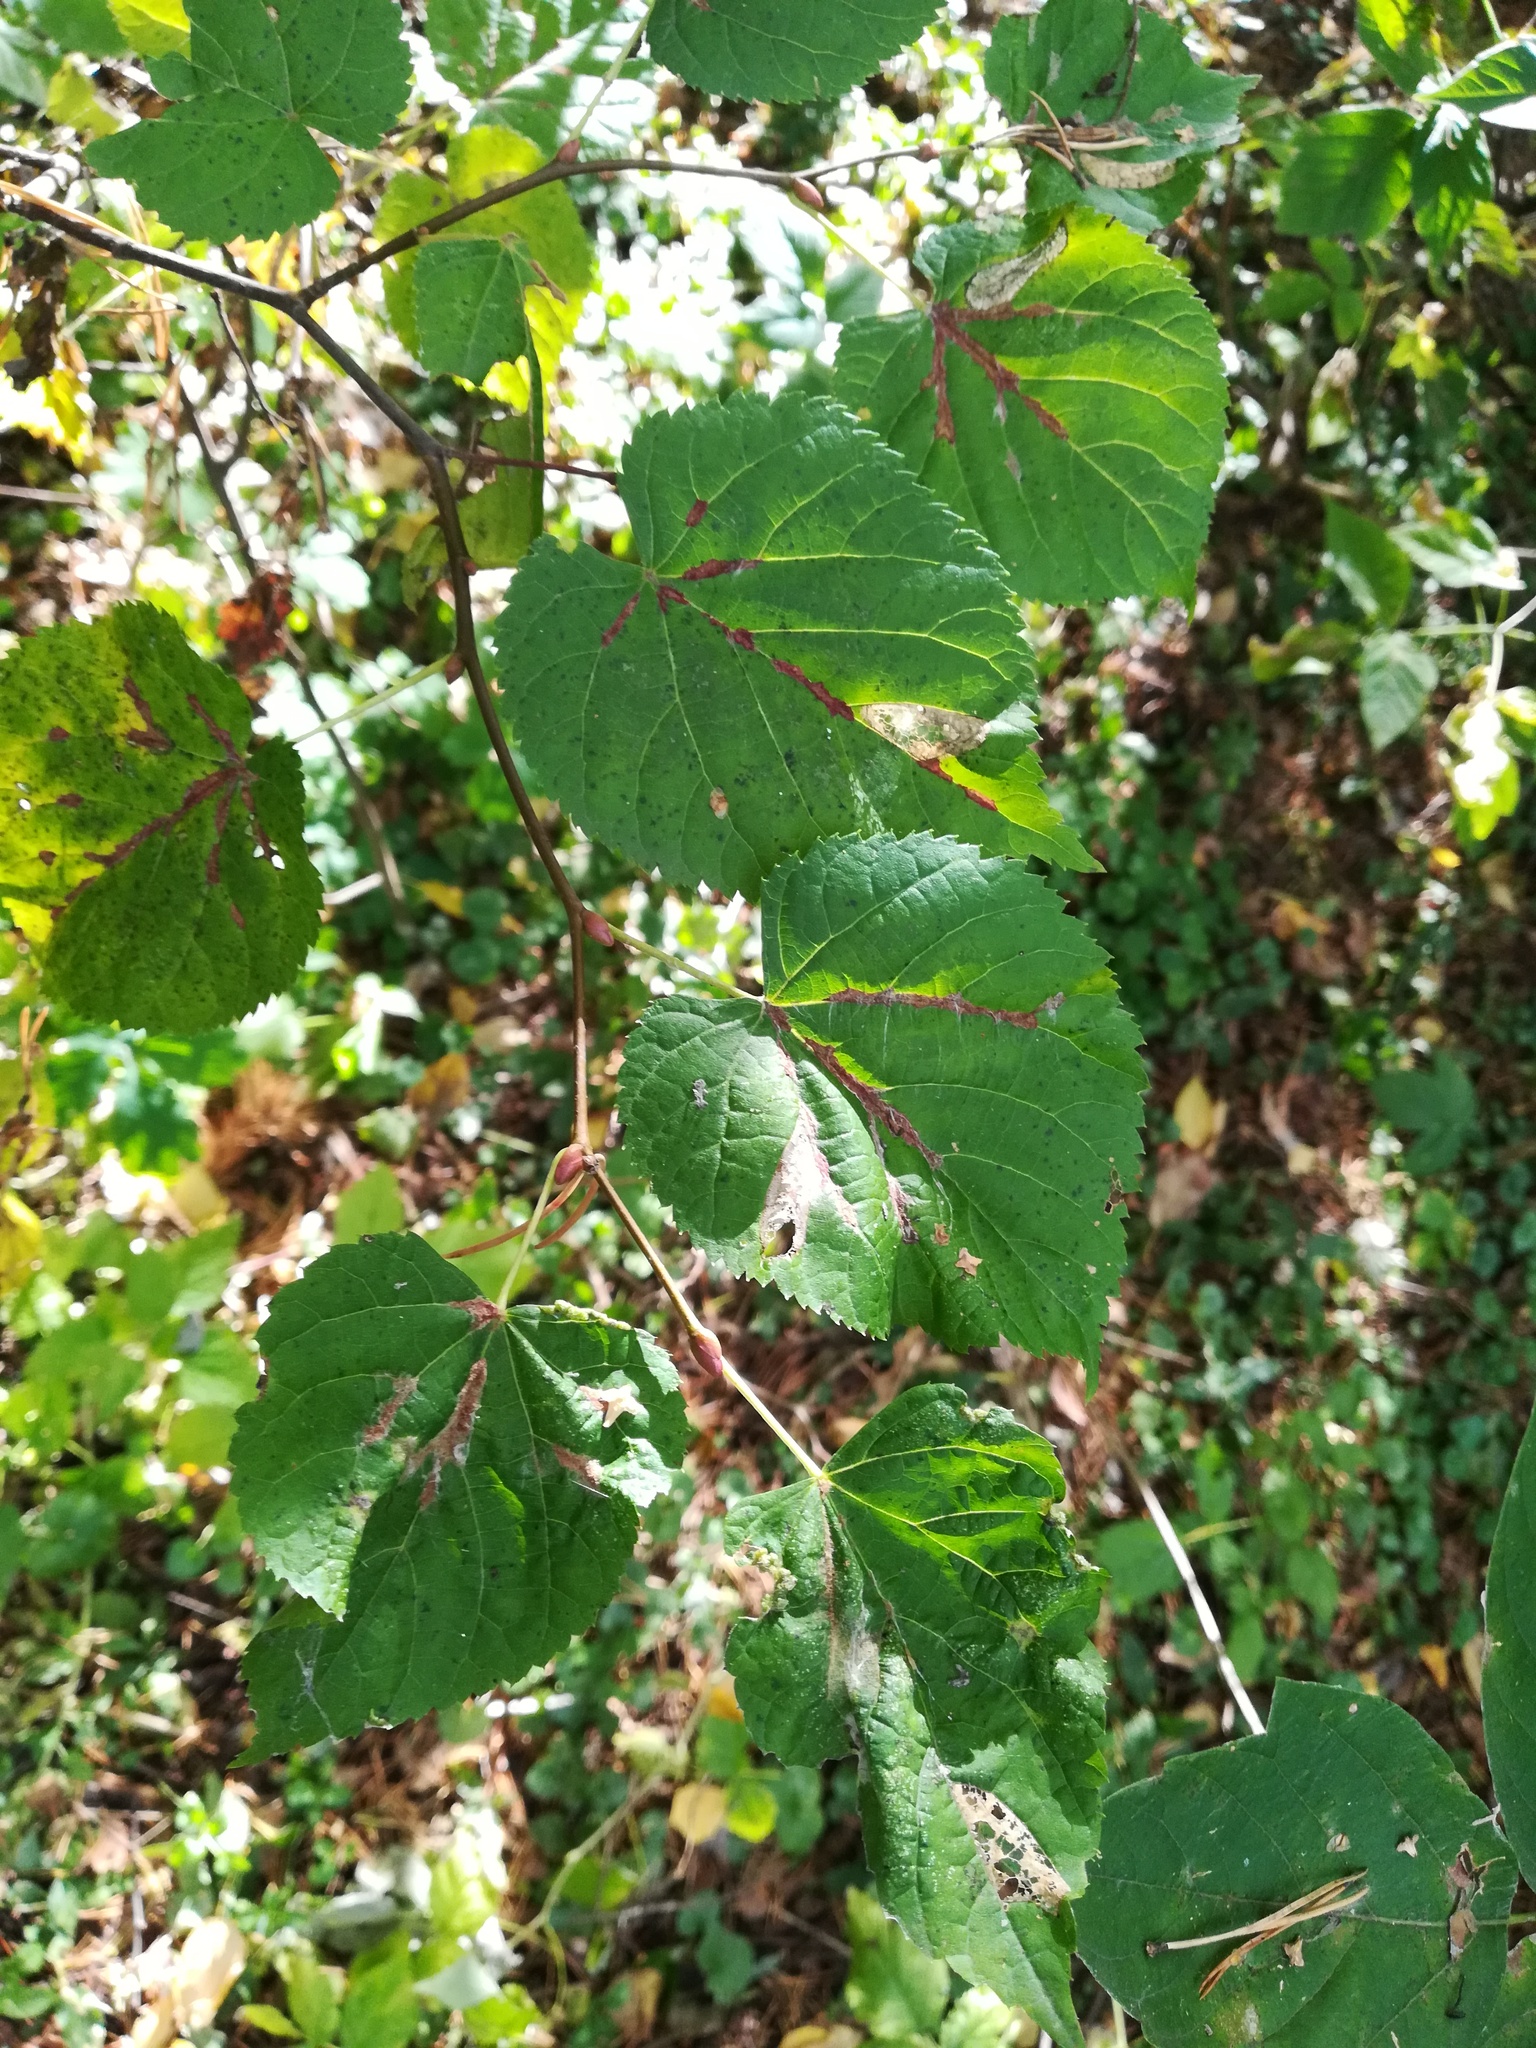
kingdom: Plantae
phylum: Tracheophyta
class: Magnoliopsida
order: Malvales
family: Malvaceae
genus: Tilia
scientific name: Tilia cordata
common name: Small-leaved lime
